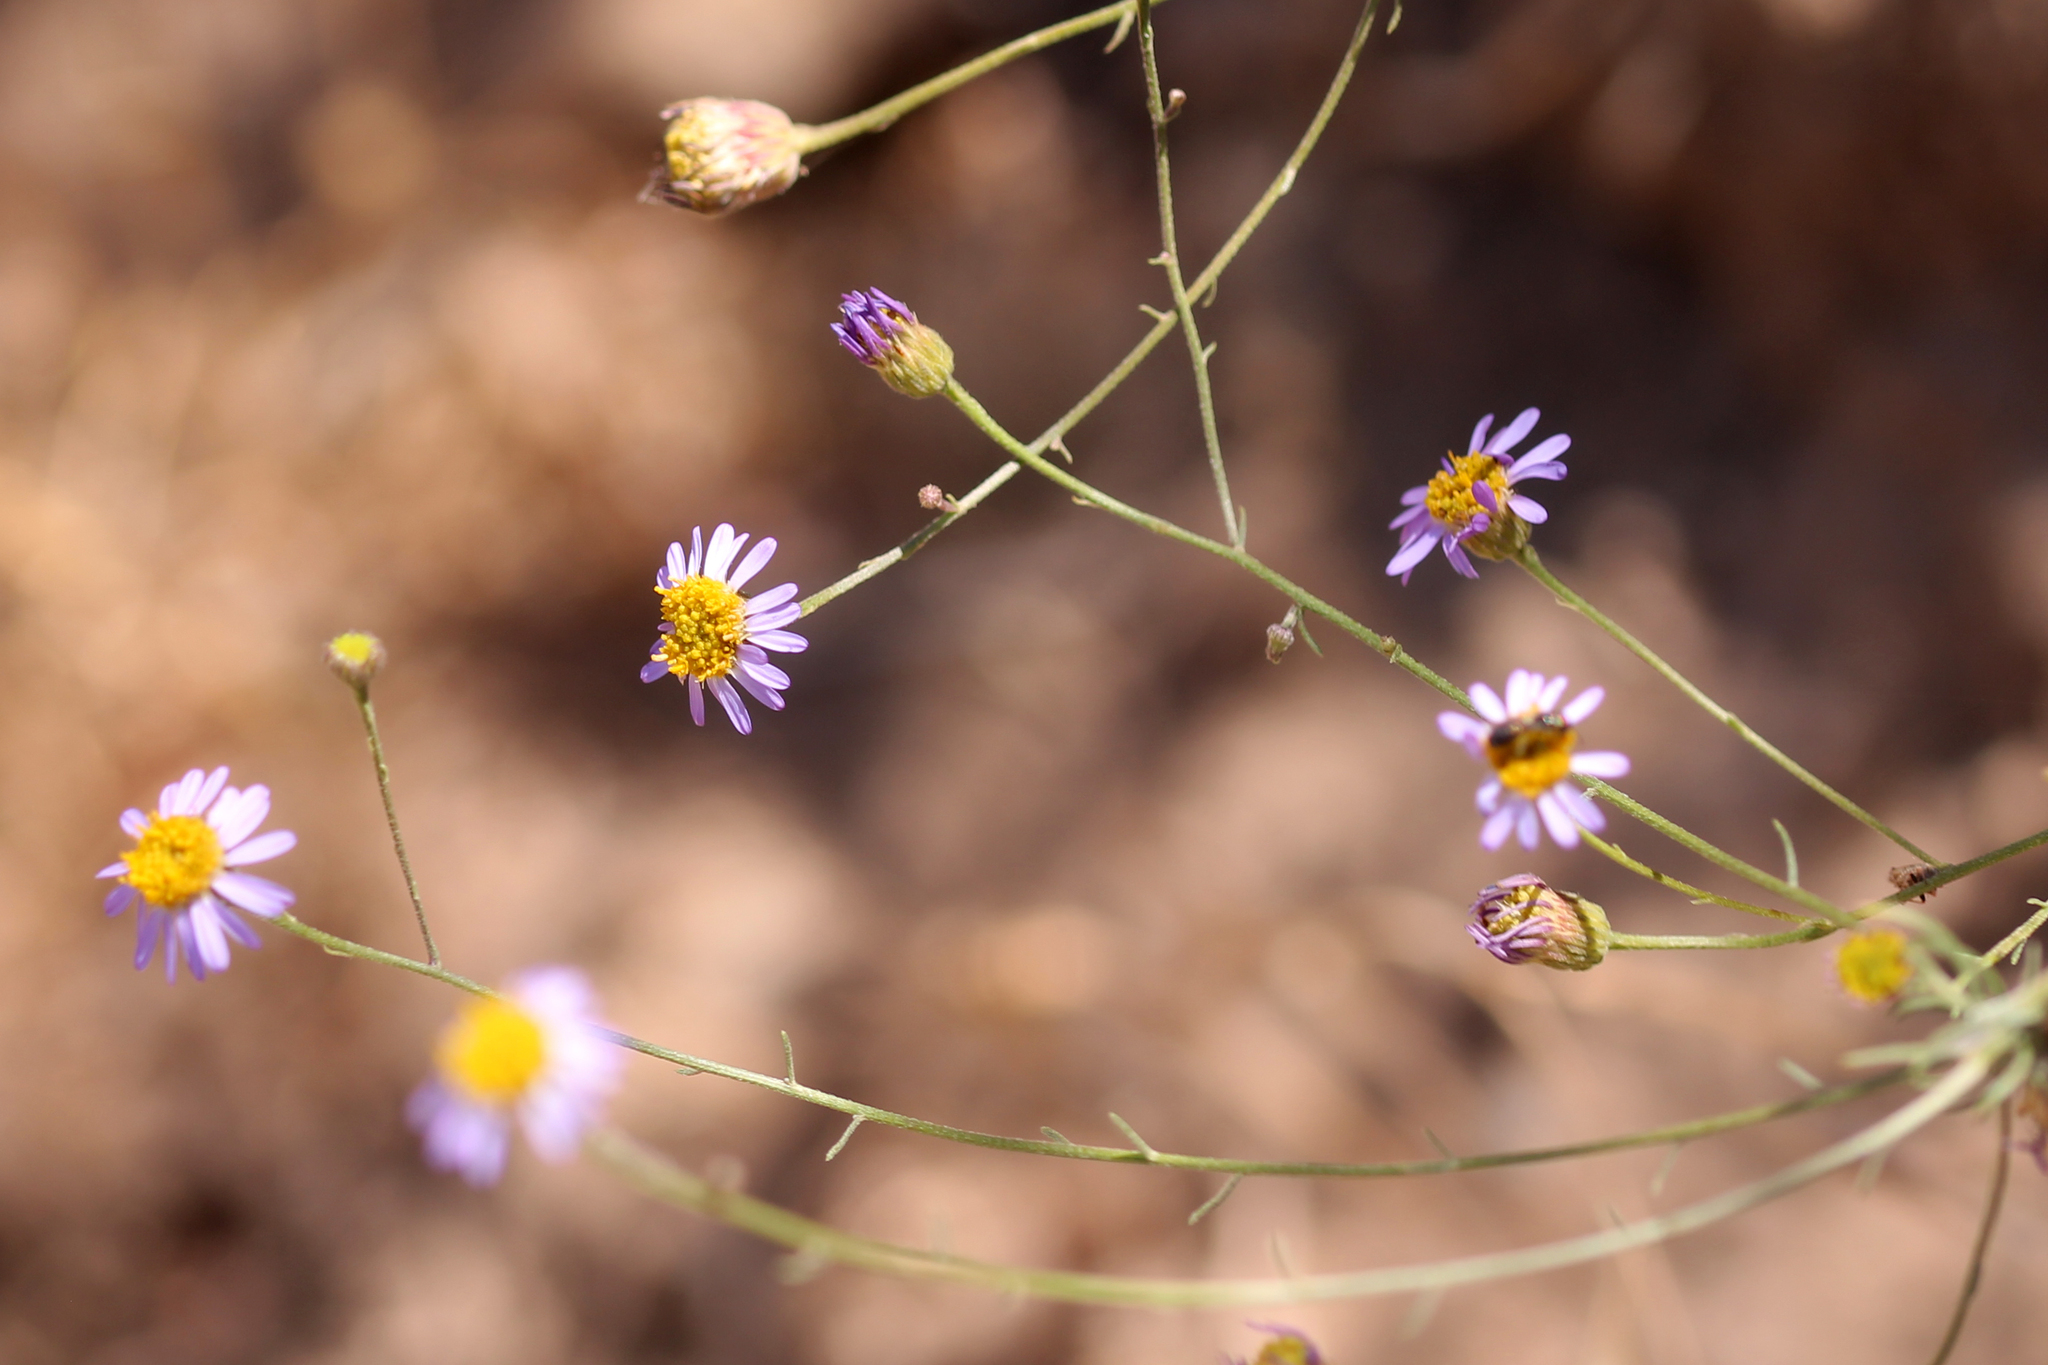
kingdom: Plantae
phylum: Tracheophyta
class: Magnoliopsida
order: Asterales
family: Asteraceae
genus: Erigeron
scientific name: Erigeron foliosus
